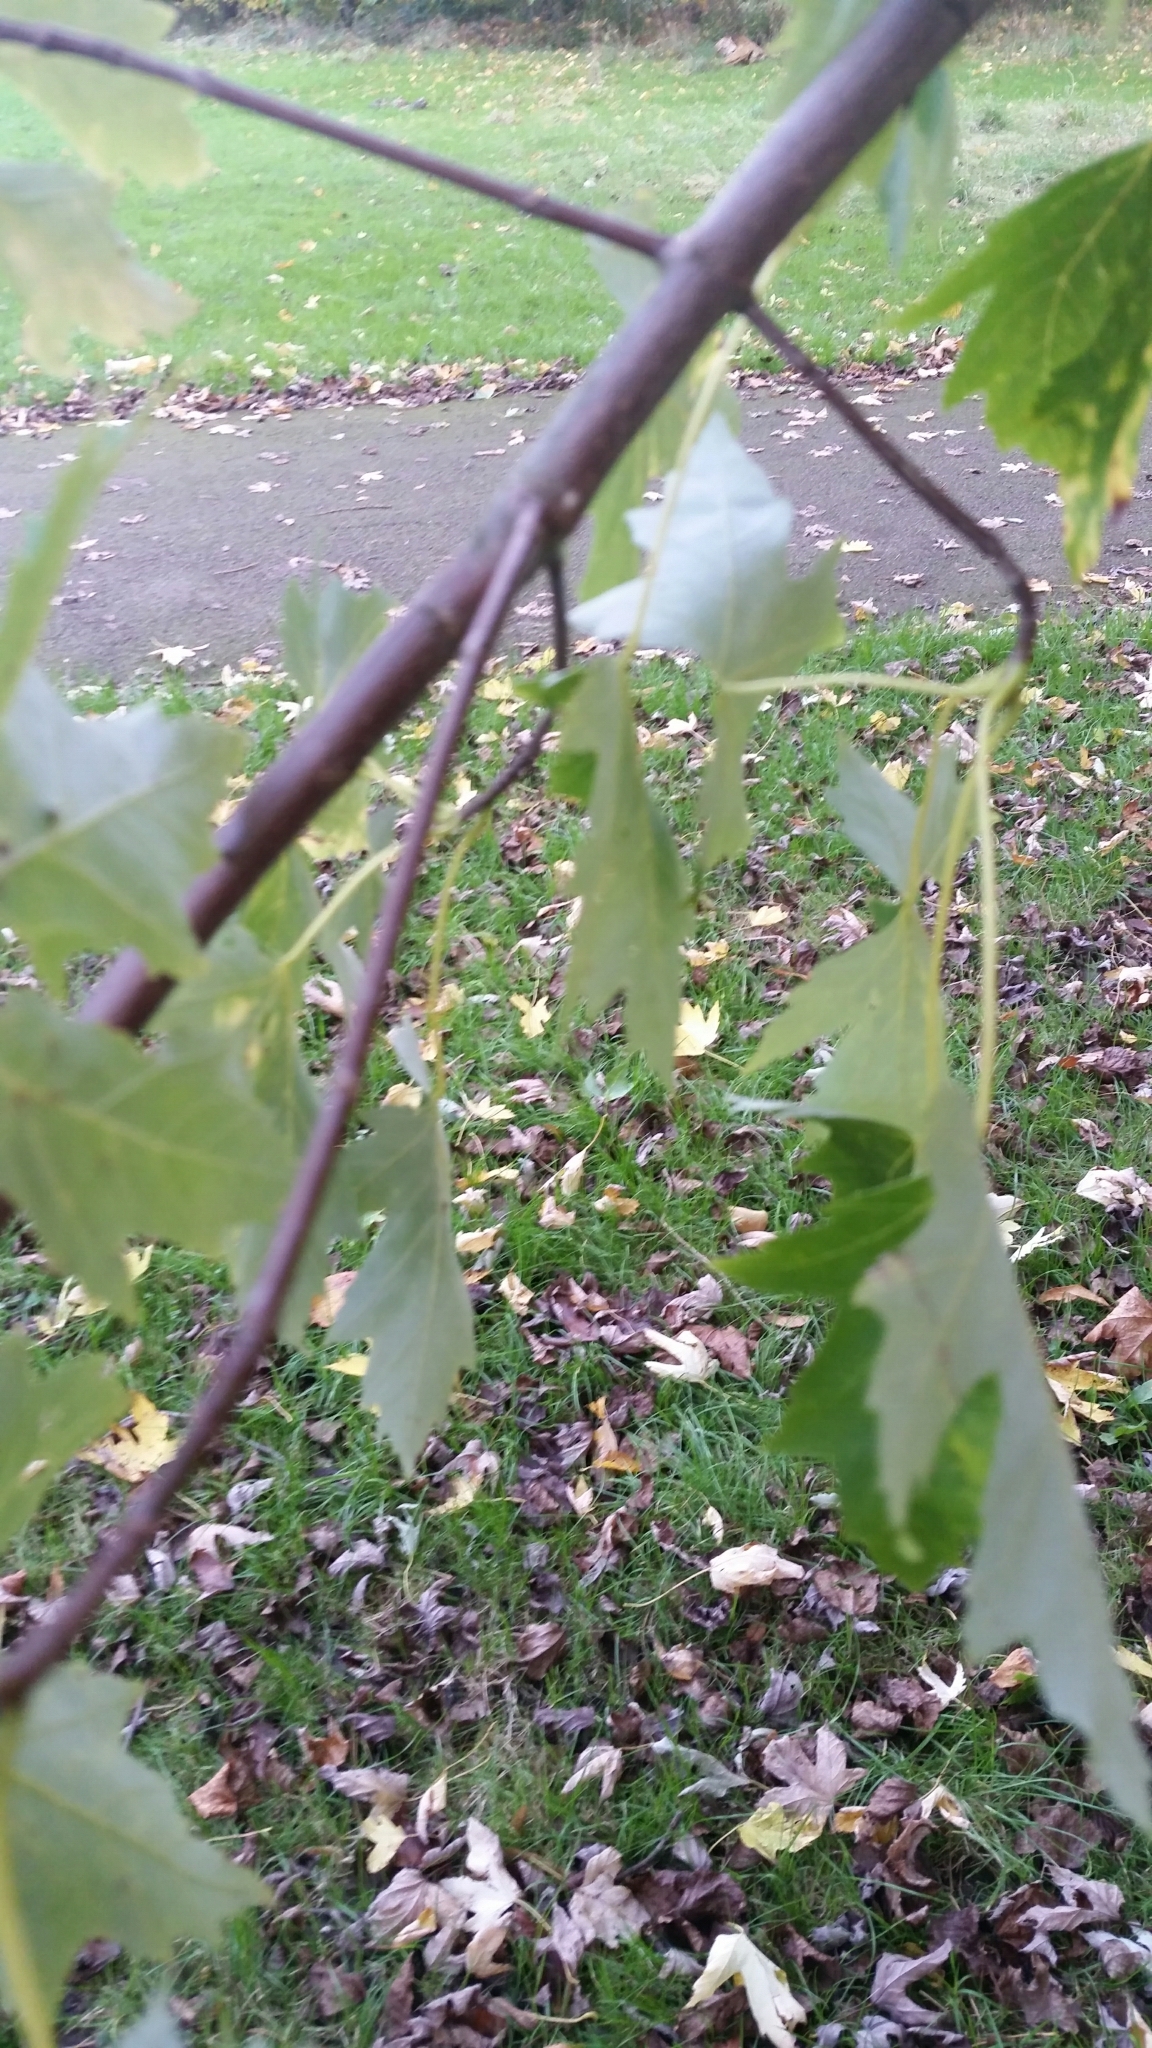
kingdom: Plantae
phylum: Tracheophyta
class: Magnoliopsida
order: Sapindales
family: Sapindaceae
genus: Acer
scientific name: Acer saccharinum
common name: Silver maple
